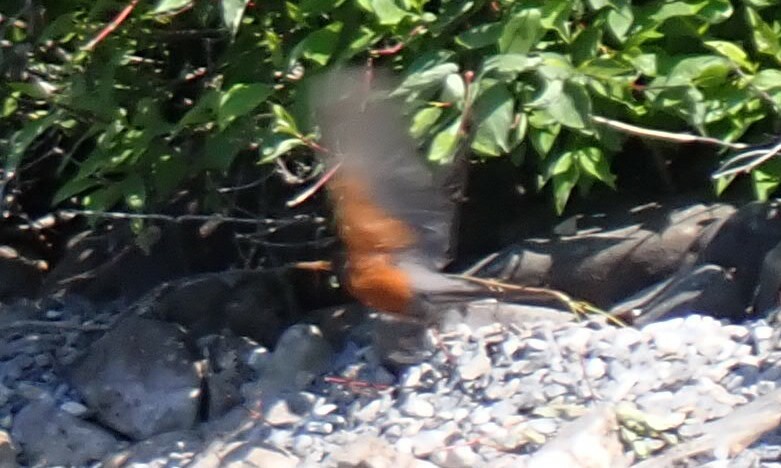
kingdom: Animalia
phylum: Chordata
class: Aves
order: Passeriformes
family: Turdidae
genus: Turdus
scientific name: Turdus migratorius
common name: American robin
